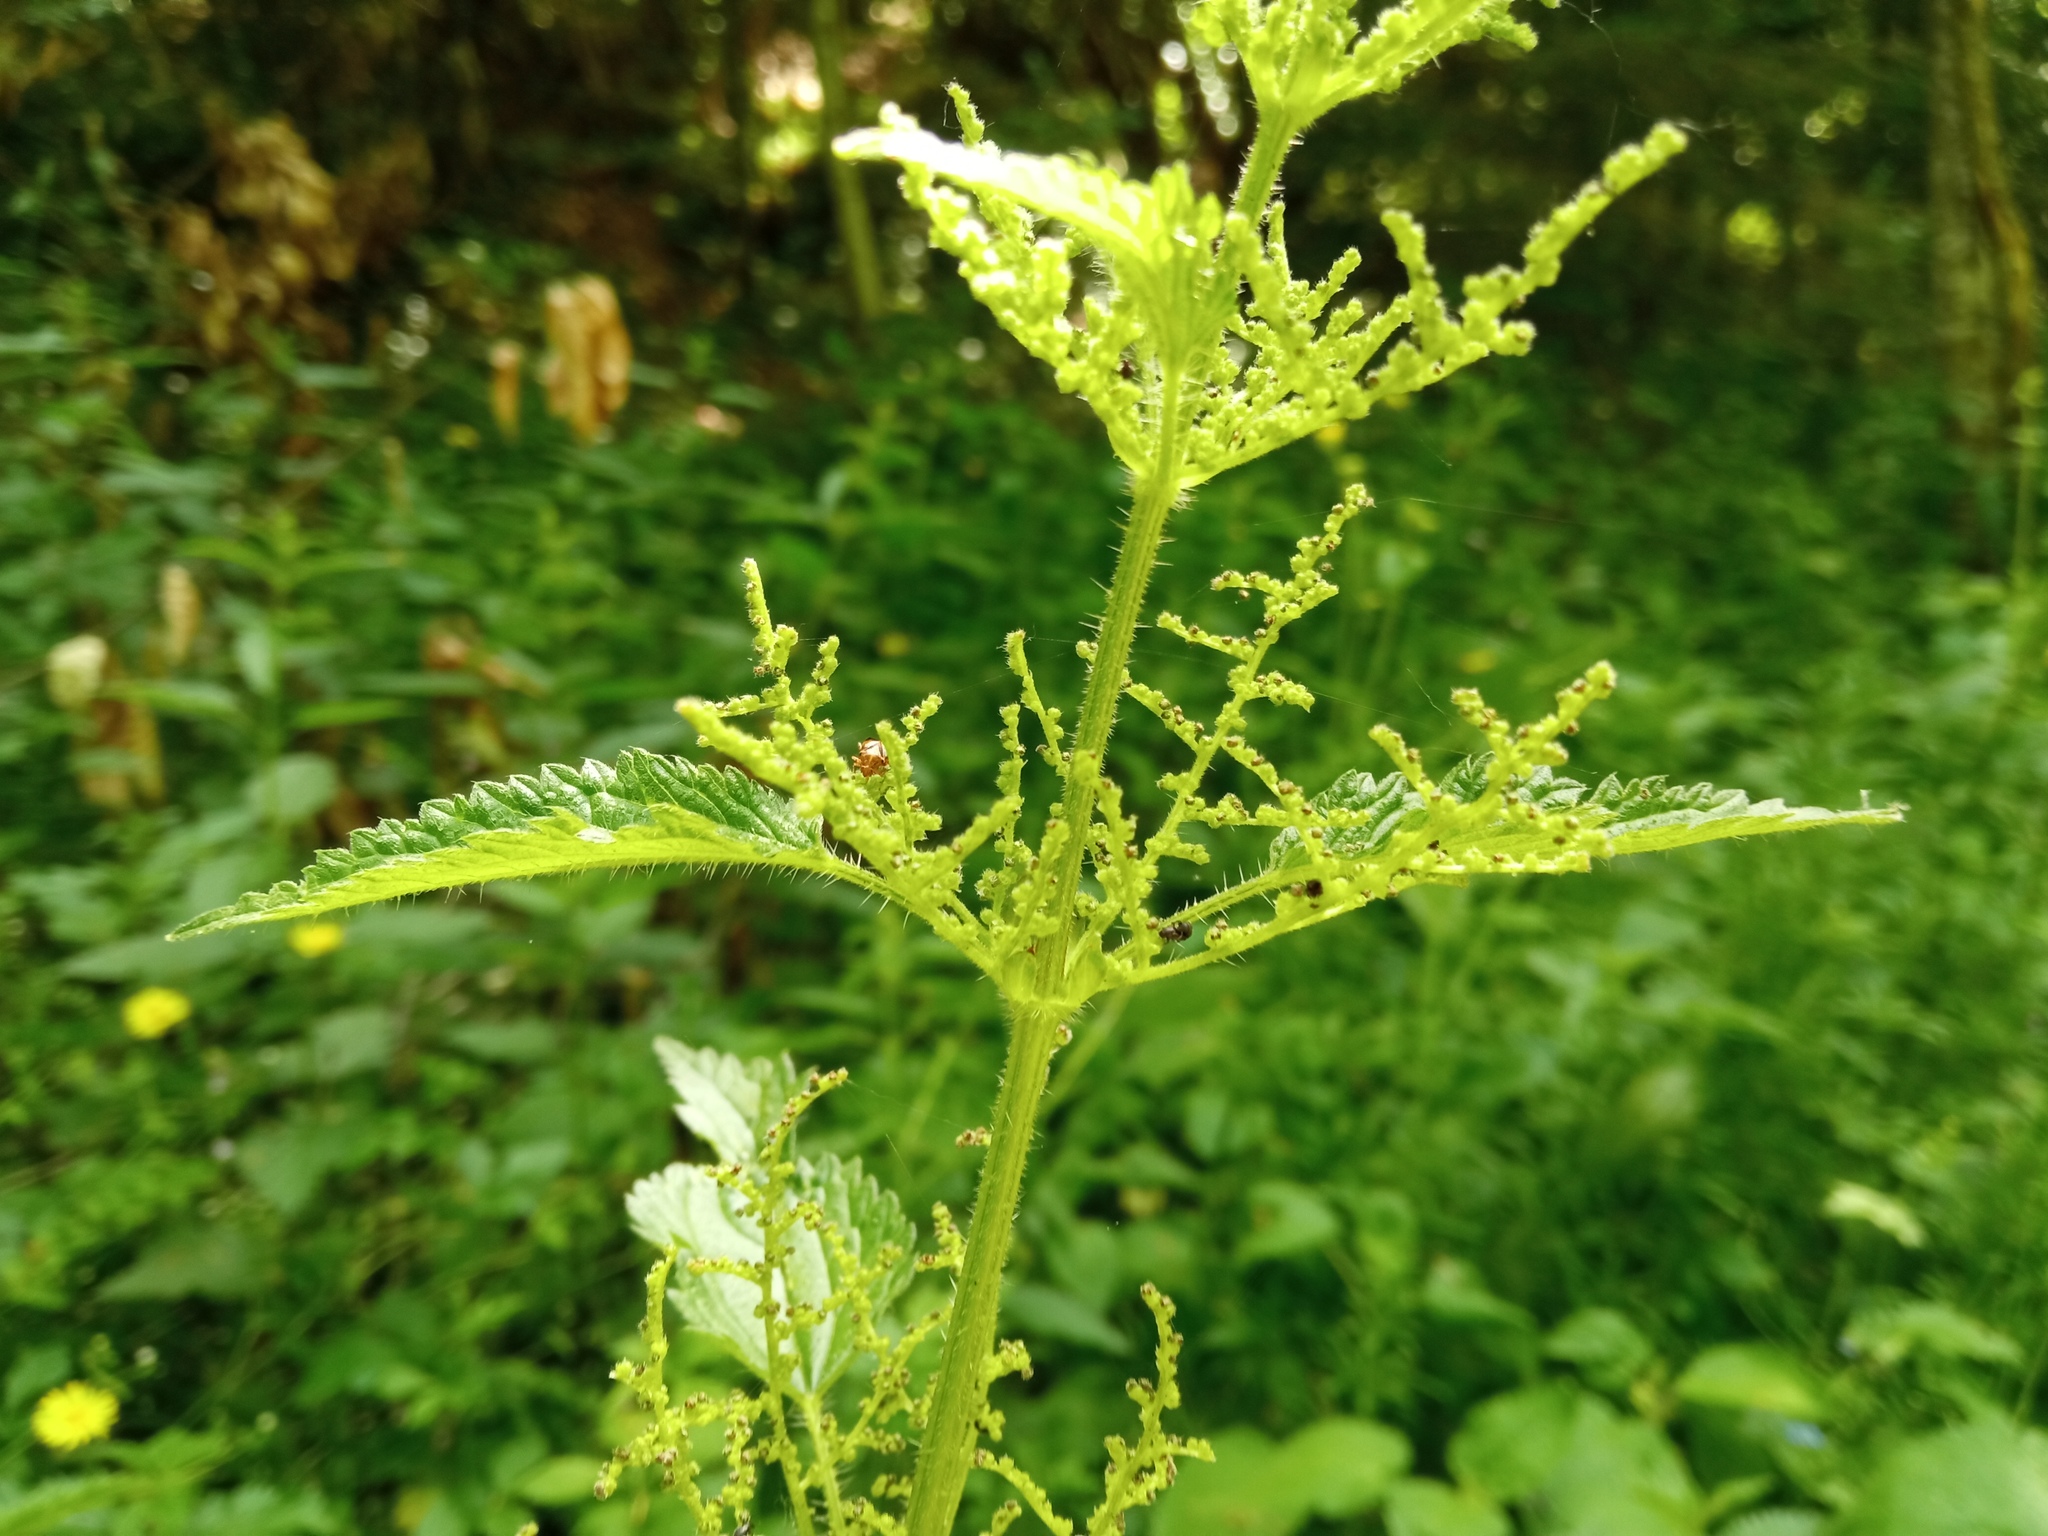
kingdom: Plantae
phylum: Tracheophyta
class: Magnoliopsida
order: Rosales
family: Urticaceae
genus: Urtica
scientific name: Urtica dioica
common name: Common nettle
